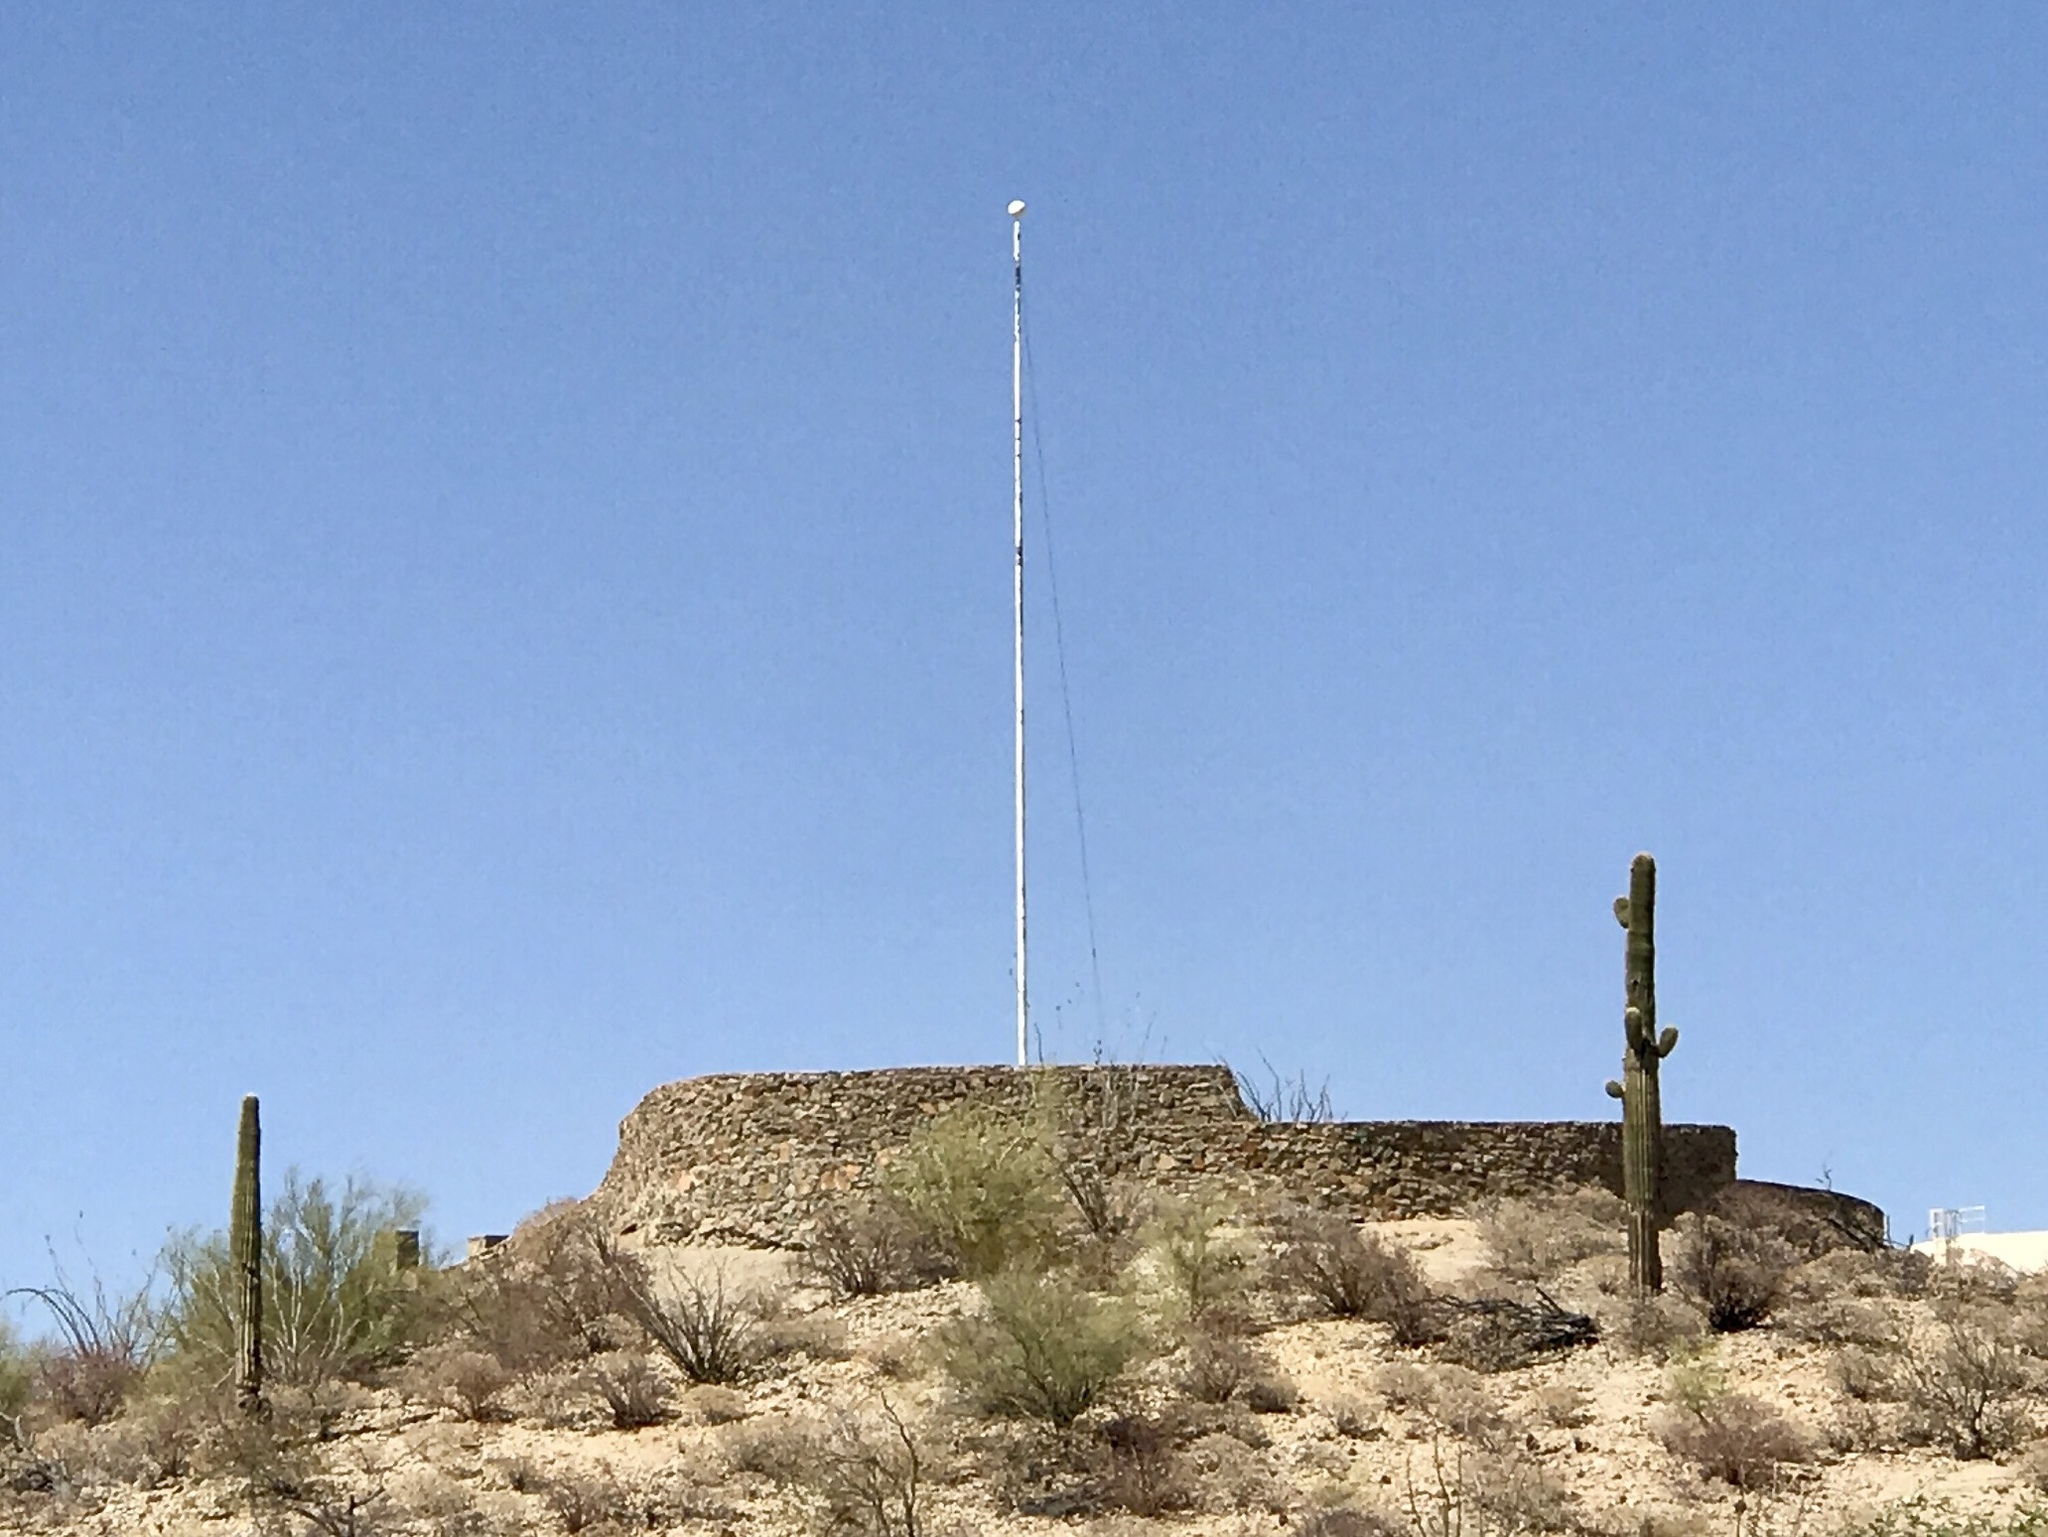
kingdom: Plantae
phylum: Tracheophyta
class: Magnoliopsida
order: Caryophyllales
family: Cactaceae
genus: Carnegiea
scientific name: Carnegiea gigantea
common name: Saguaro
